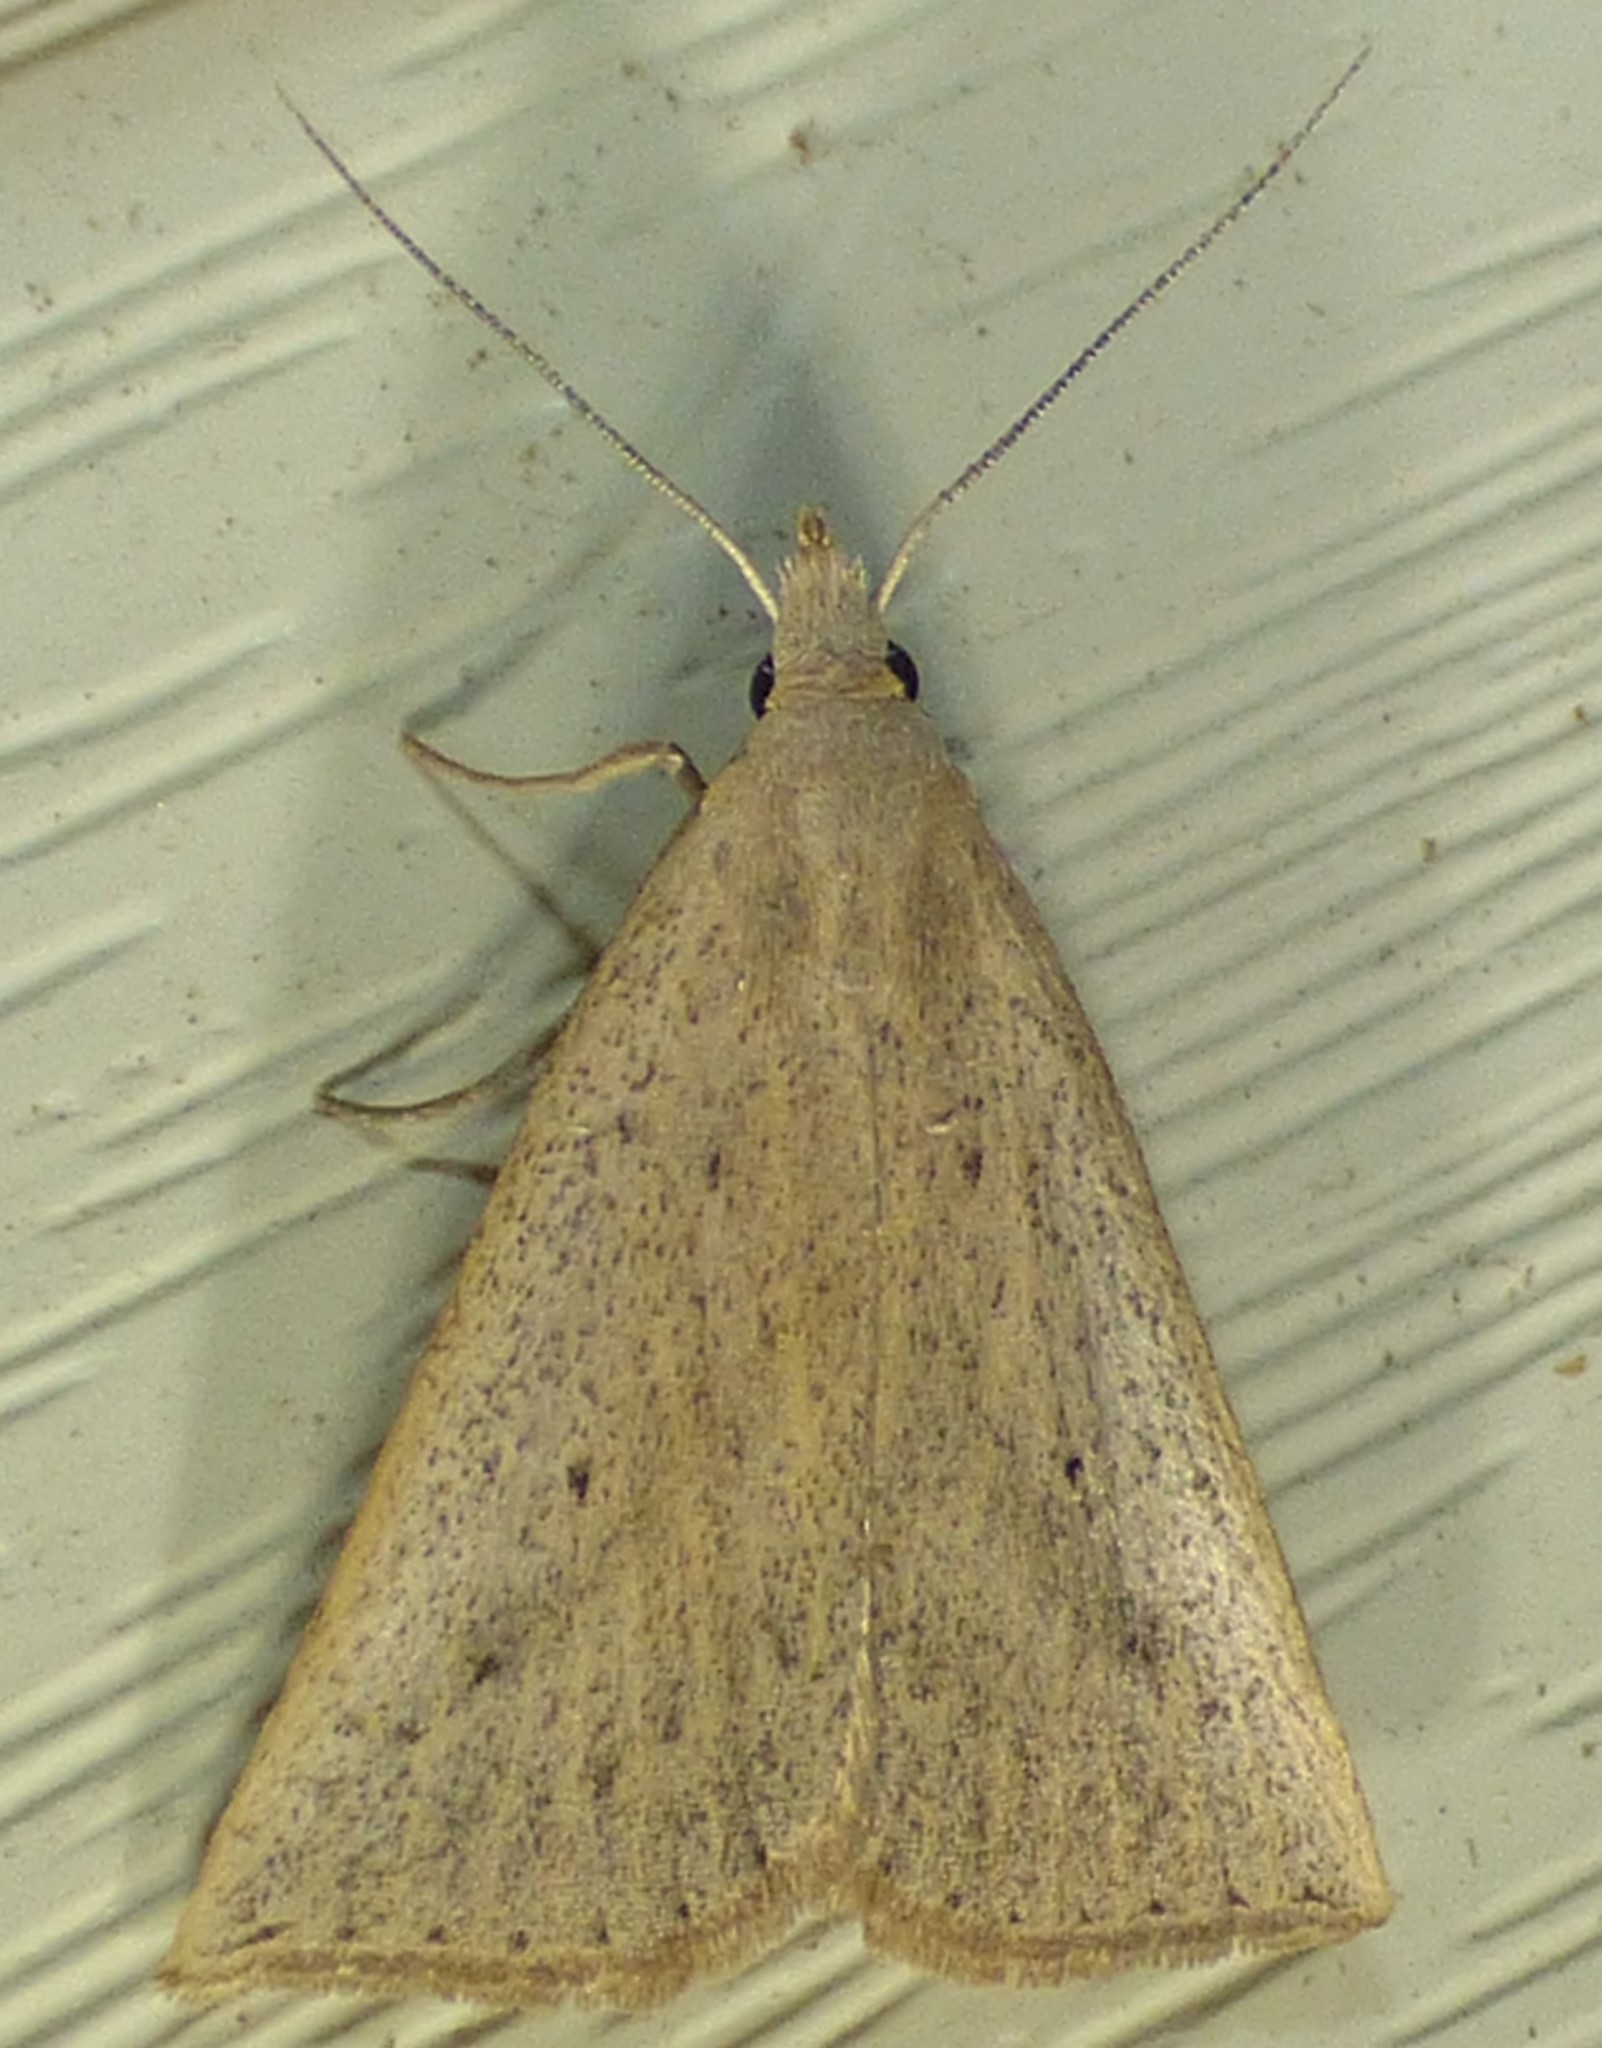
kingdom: Animalia
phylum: Arthropoda
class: Insecta
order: Lepidoptera
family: Erebidae
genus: Macrochilo
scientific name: Macrochilo louisiana
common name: Louisiana macrochilo
